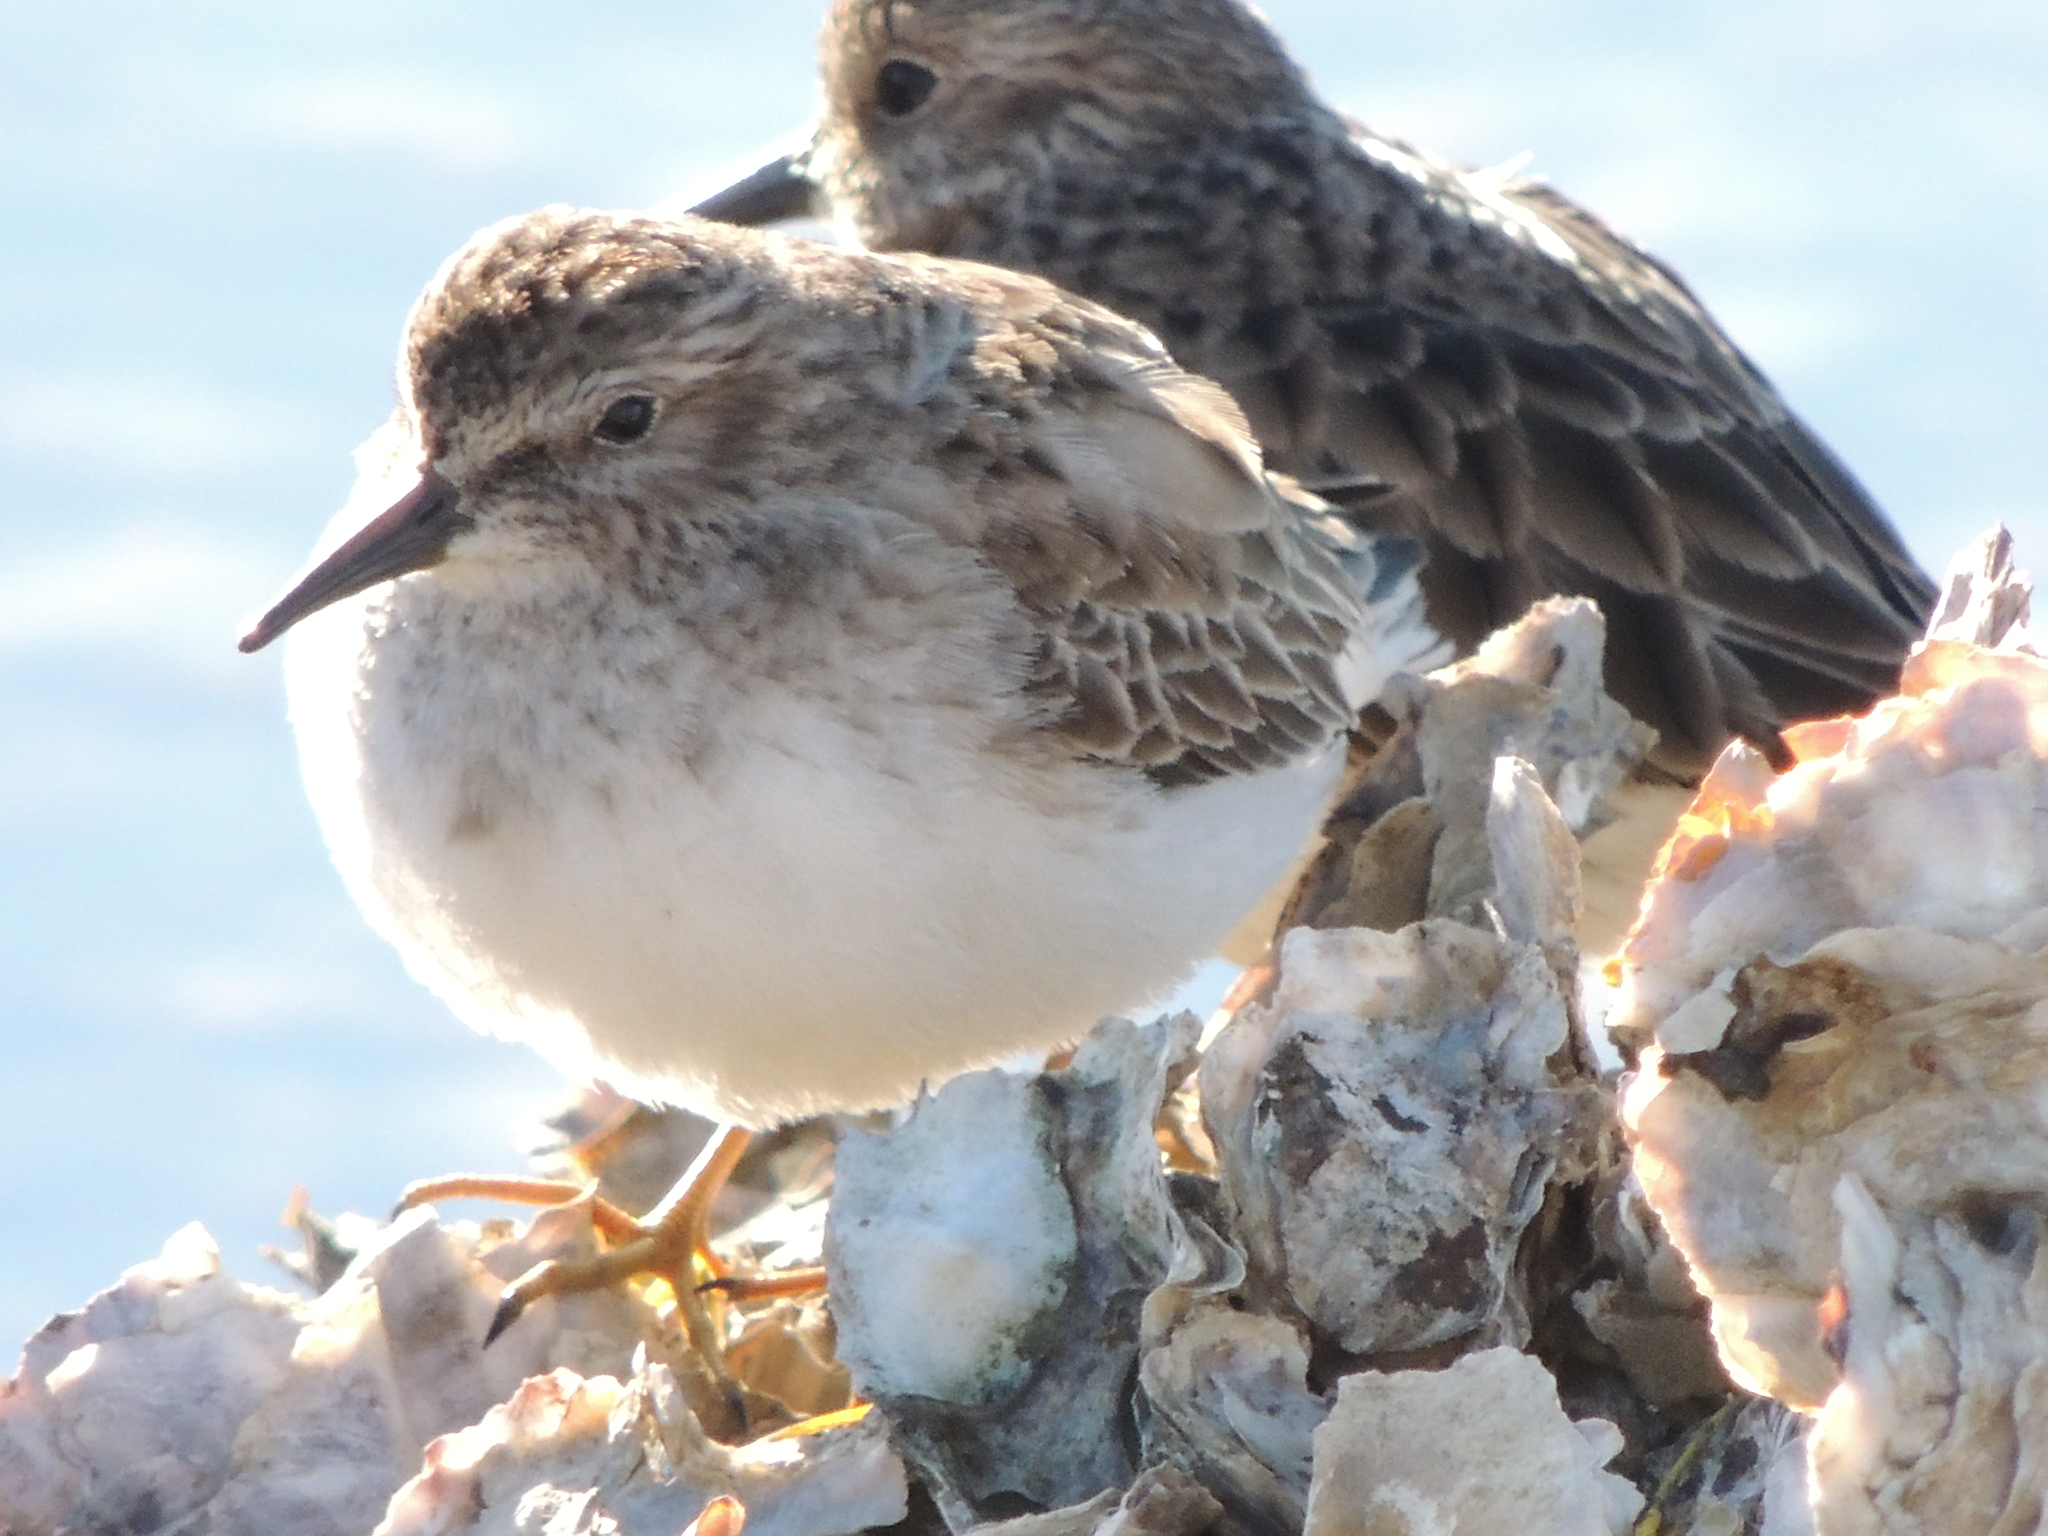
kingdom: Animalia
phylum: Chordata
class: Aves
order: Charadriiformes
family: Scolopacidae
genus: Calidris
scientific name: Calidris minutilla
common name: Least sandpiper
